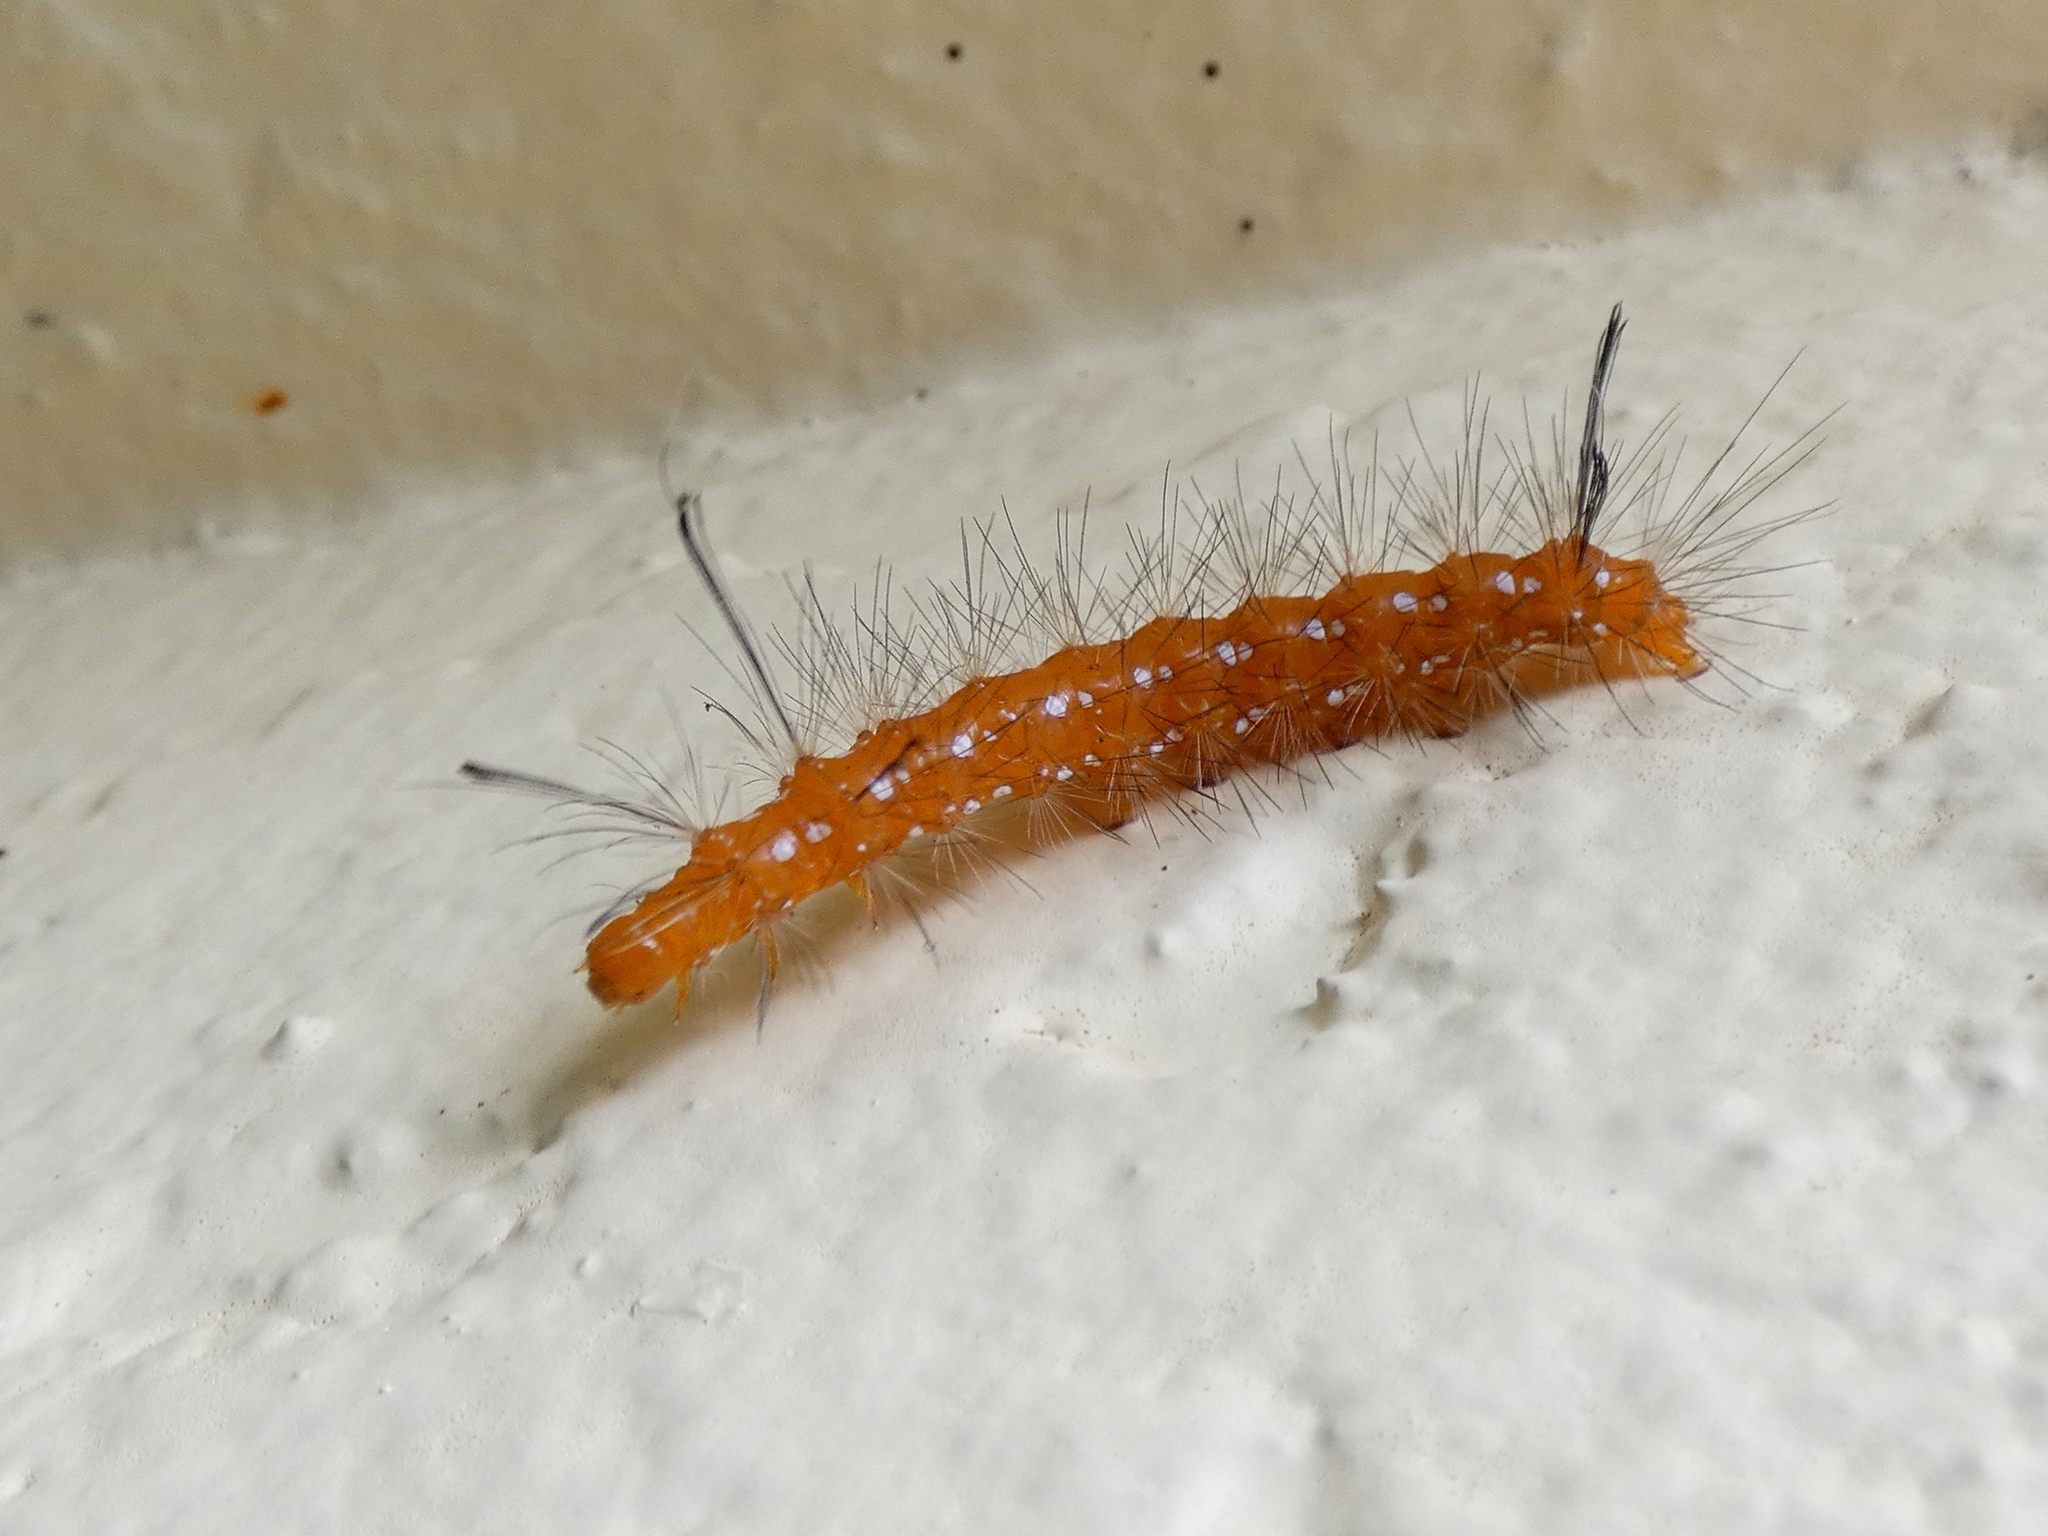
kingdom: Animalia
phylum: Arthropoda
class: Insecta
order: Lepidoptera
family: Erebidae
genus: Empyreuma
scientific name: Empyreuma pugione
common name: Spotted oleander caterpillar moth
